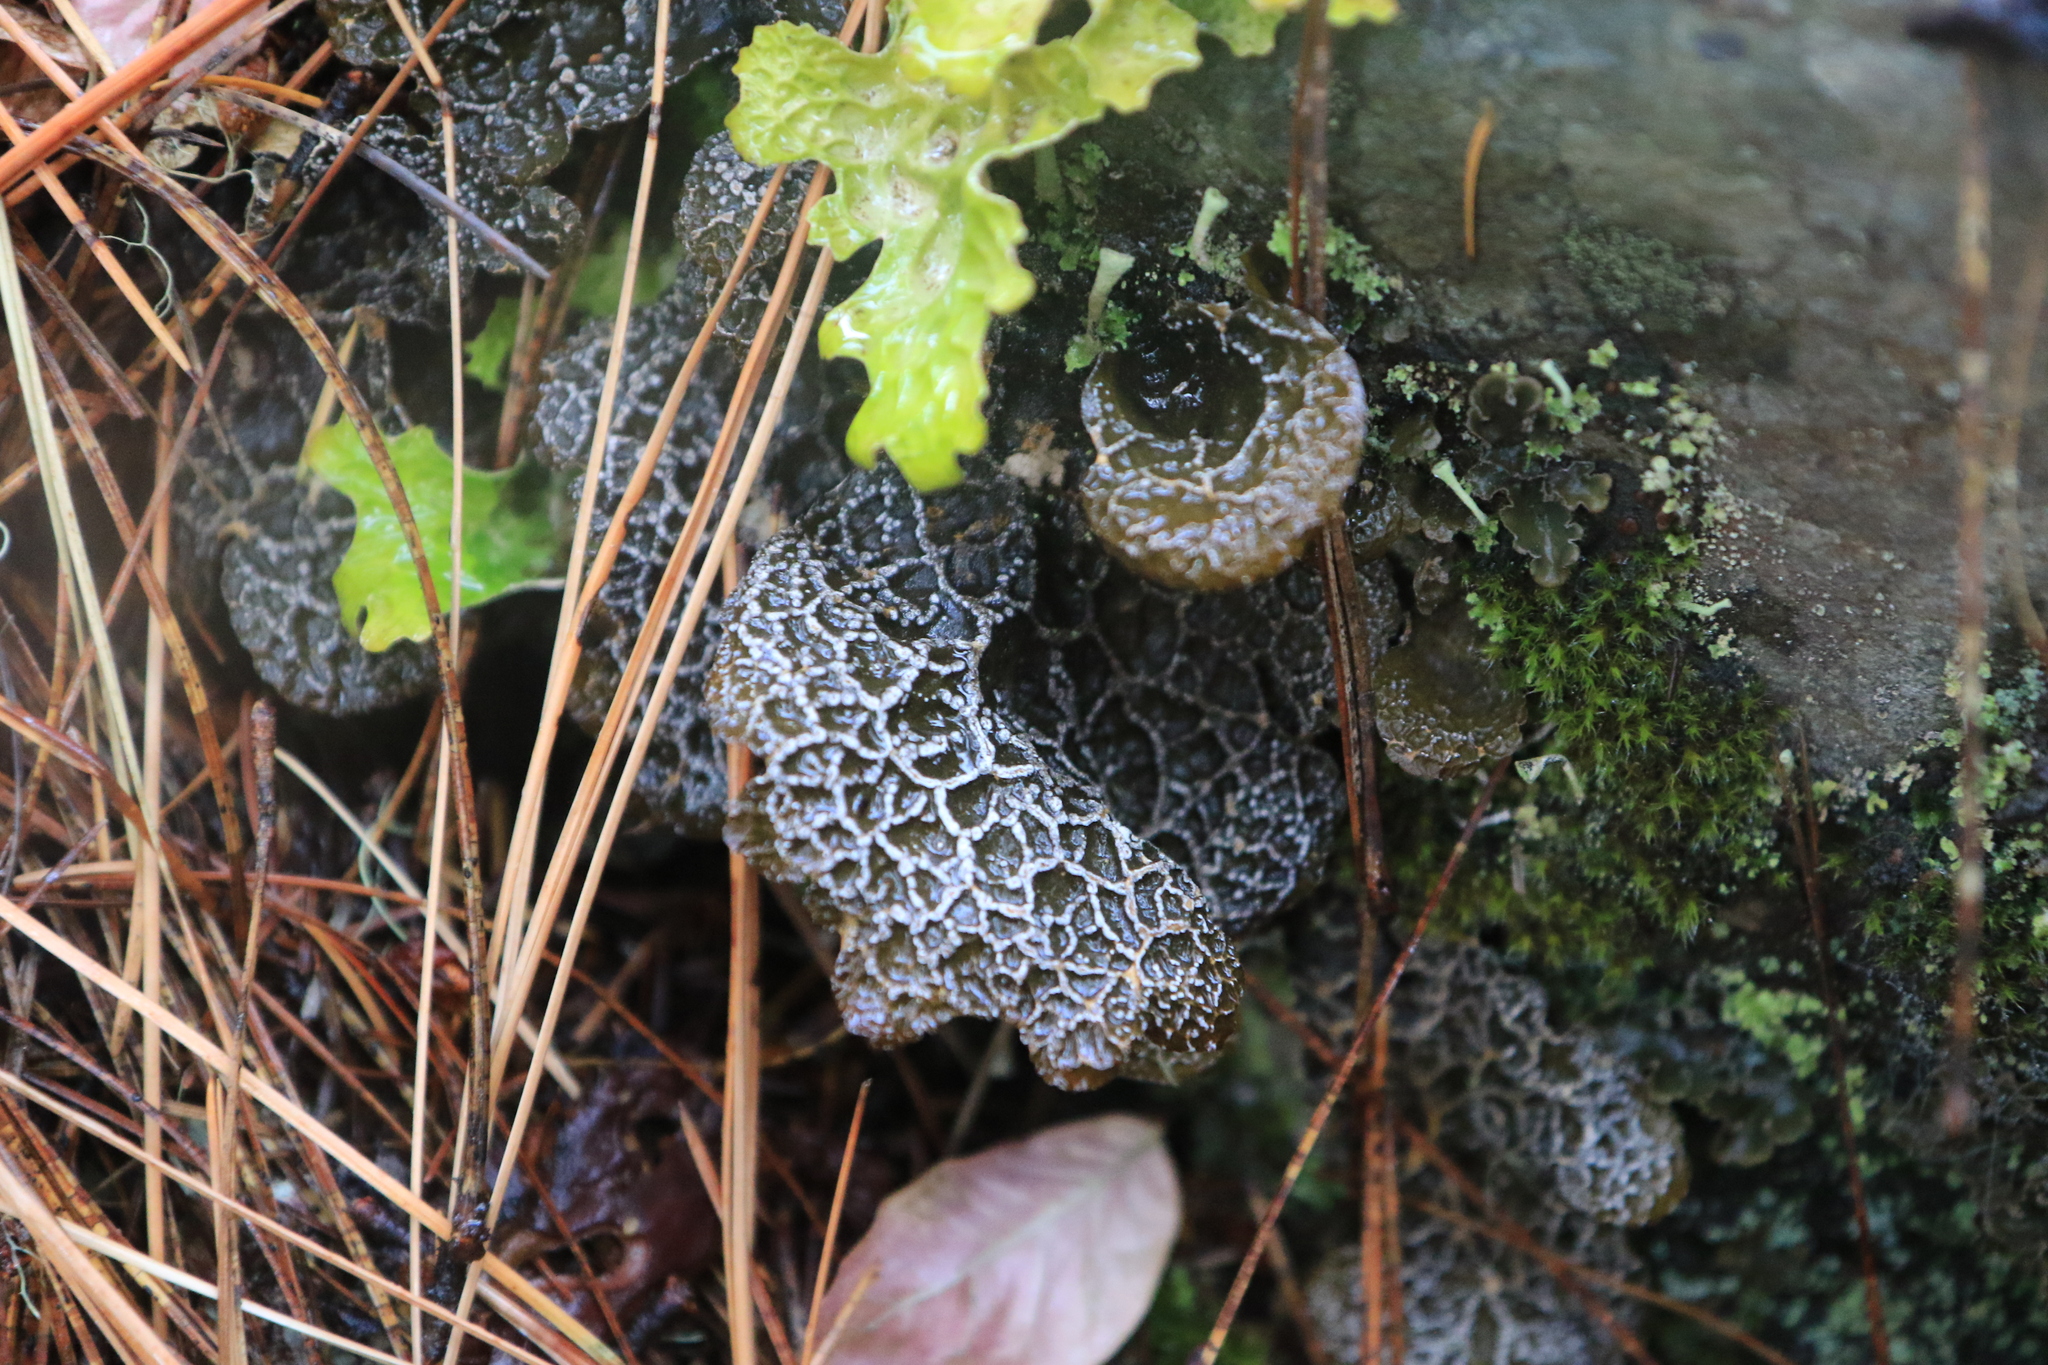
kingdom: Fungi
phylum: Ascomycota
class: Lecanoromycetes
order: Peltigerales
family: Lobariaceae
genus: Lobaria
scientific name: Lobaria anomala
